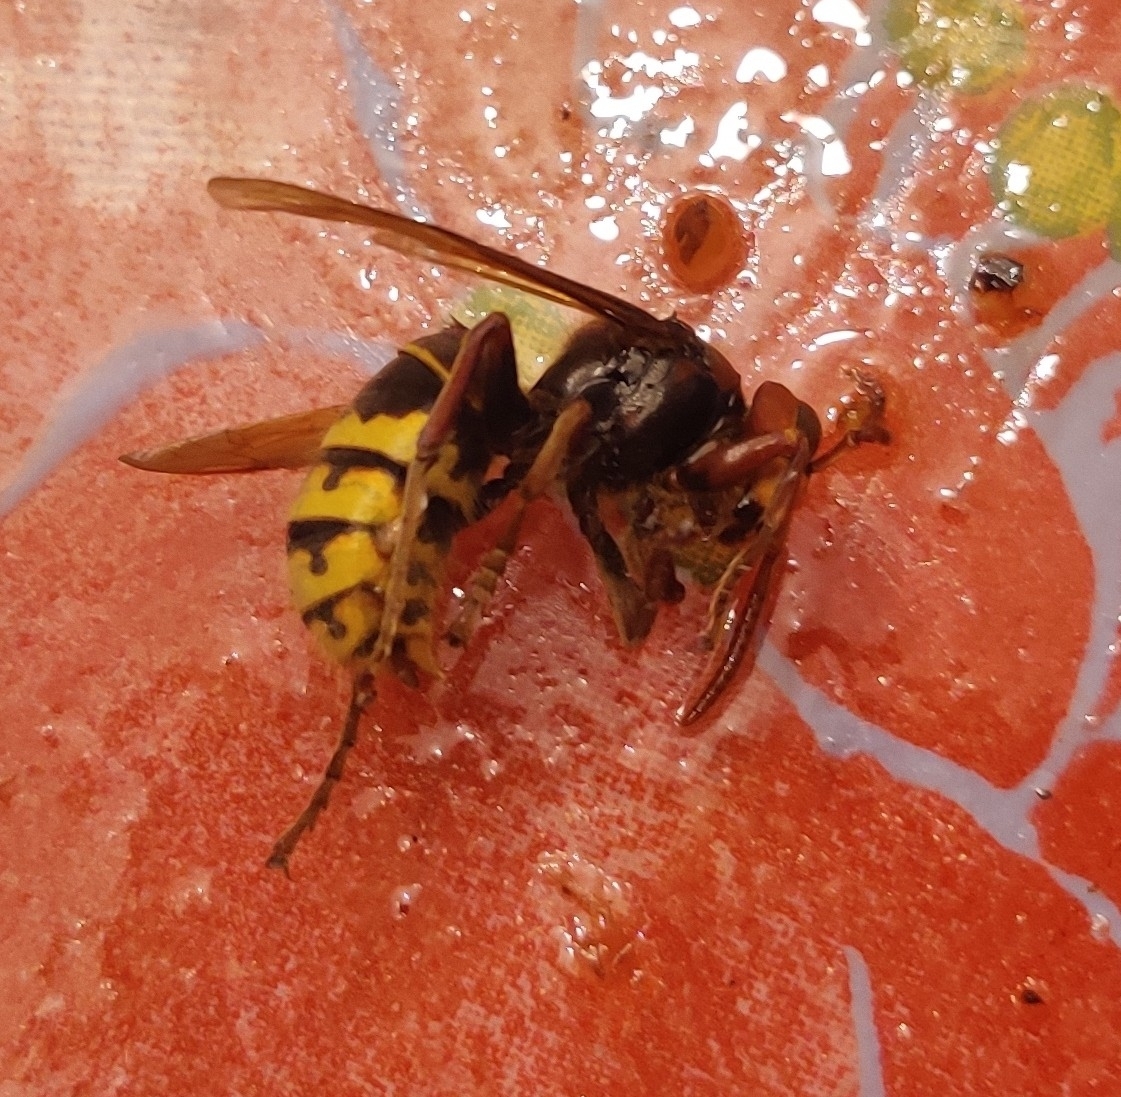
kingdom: Animalia
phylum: Arthropoda
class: Insecta
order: Hymenoptera
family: Vespidae
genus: Vespa
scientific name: Vespa crabro
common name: Hornet
